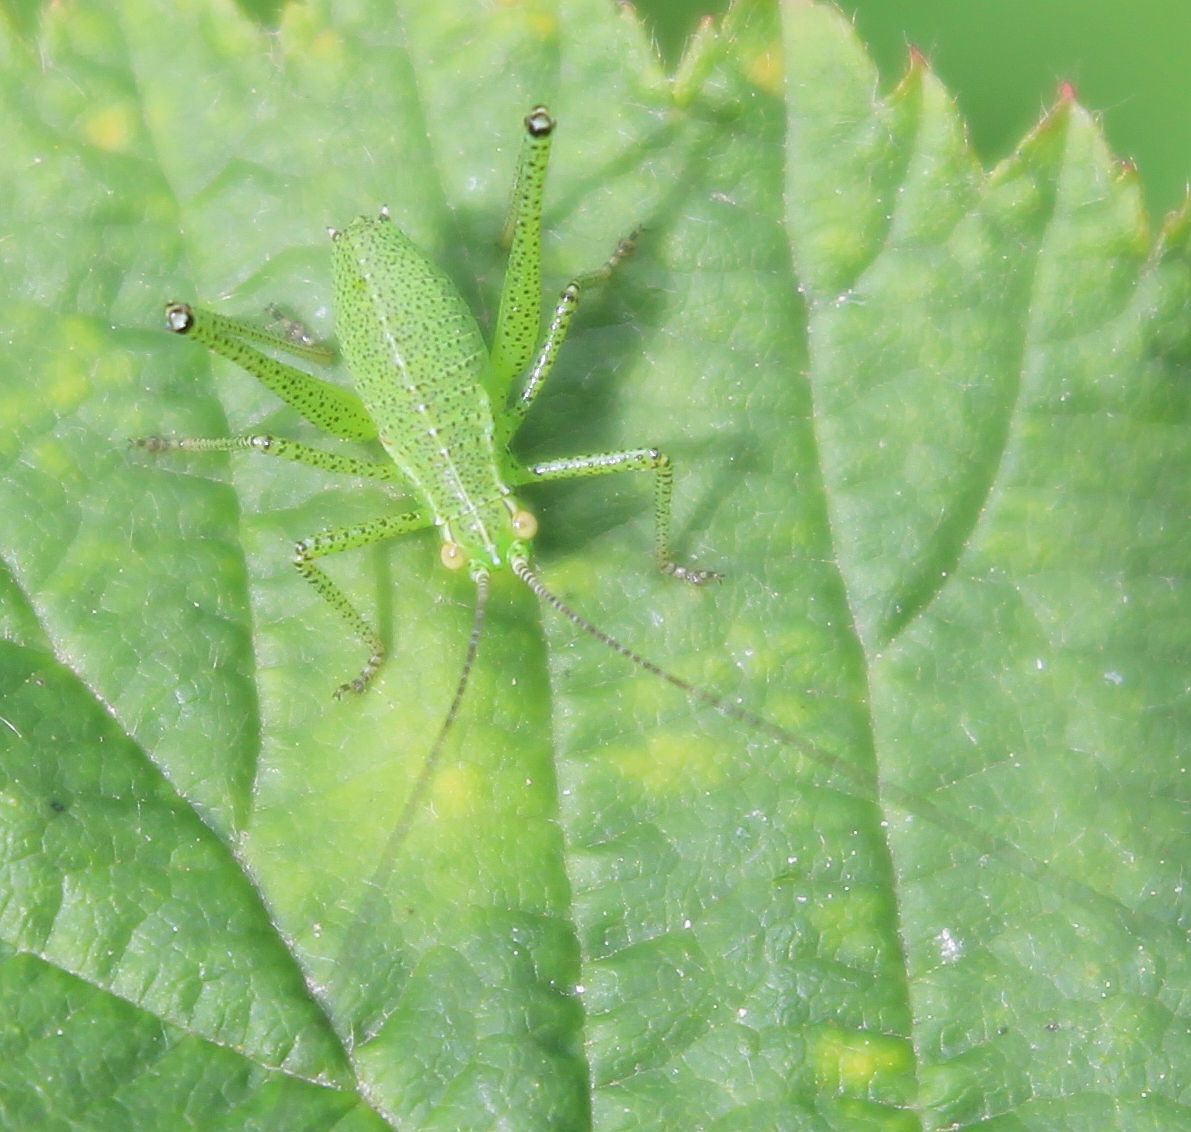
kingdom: Animalia
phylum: Arthropoda
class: Insecta
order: Orthoptera
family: Tettigoniidae
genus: Leptophyes
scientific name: Leptophyes punctatissima
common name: Speckled bush-cricket
